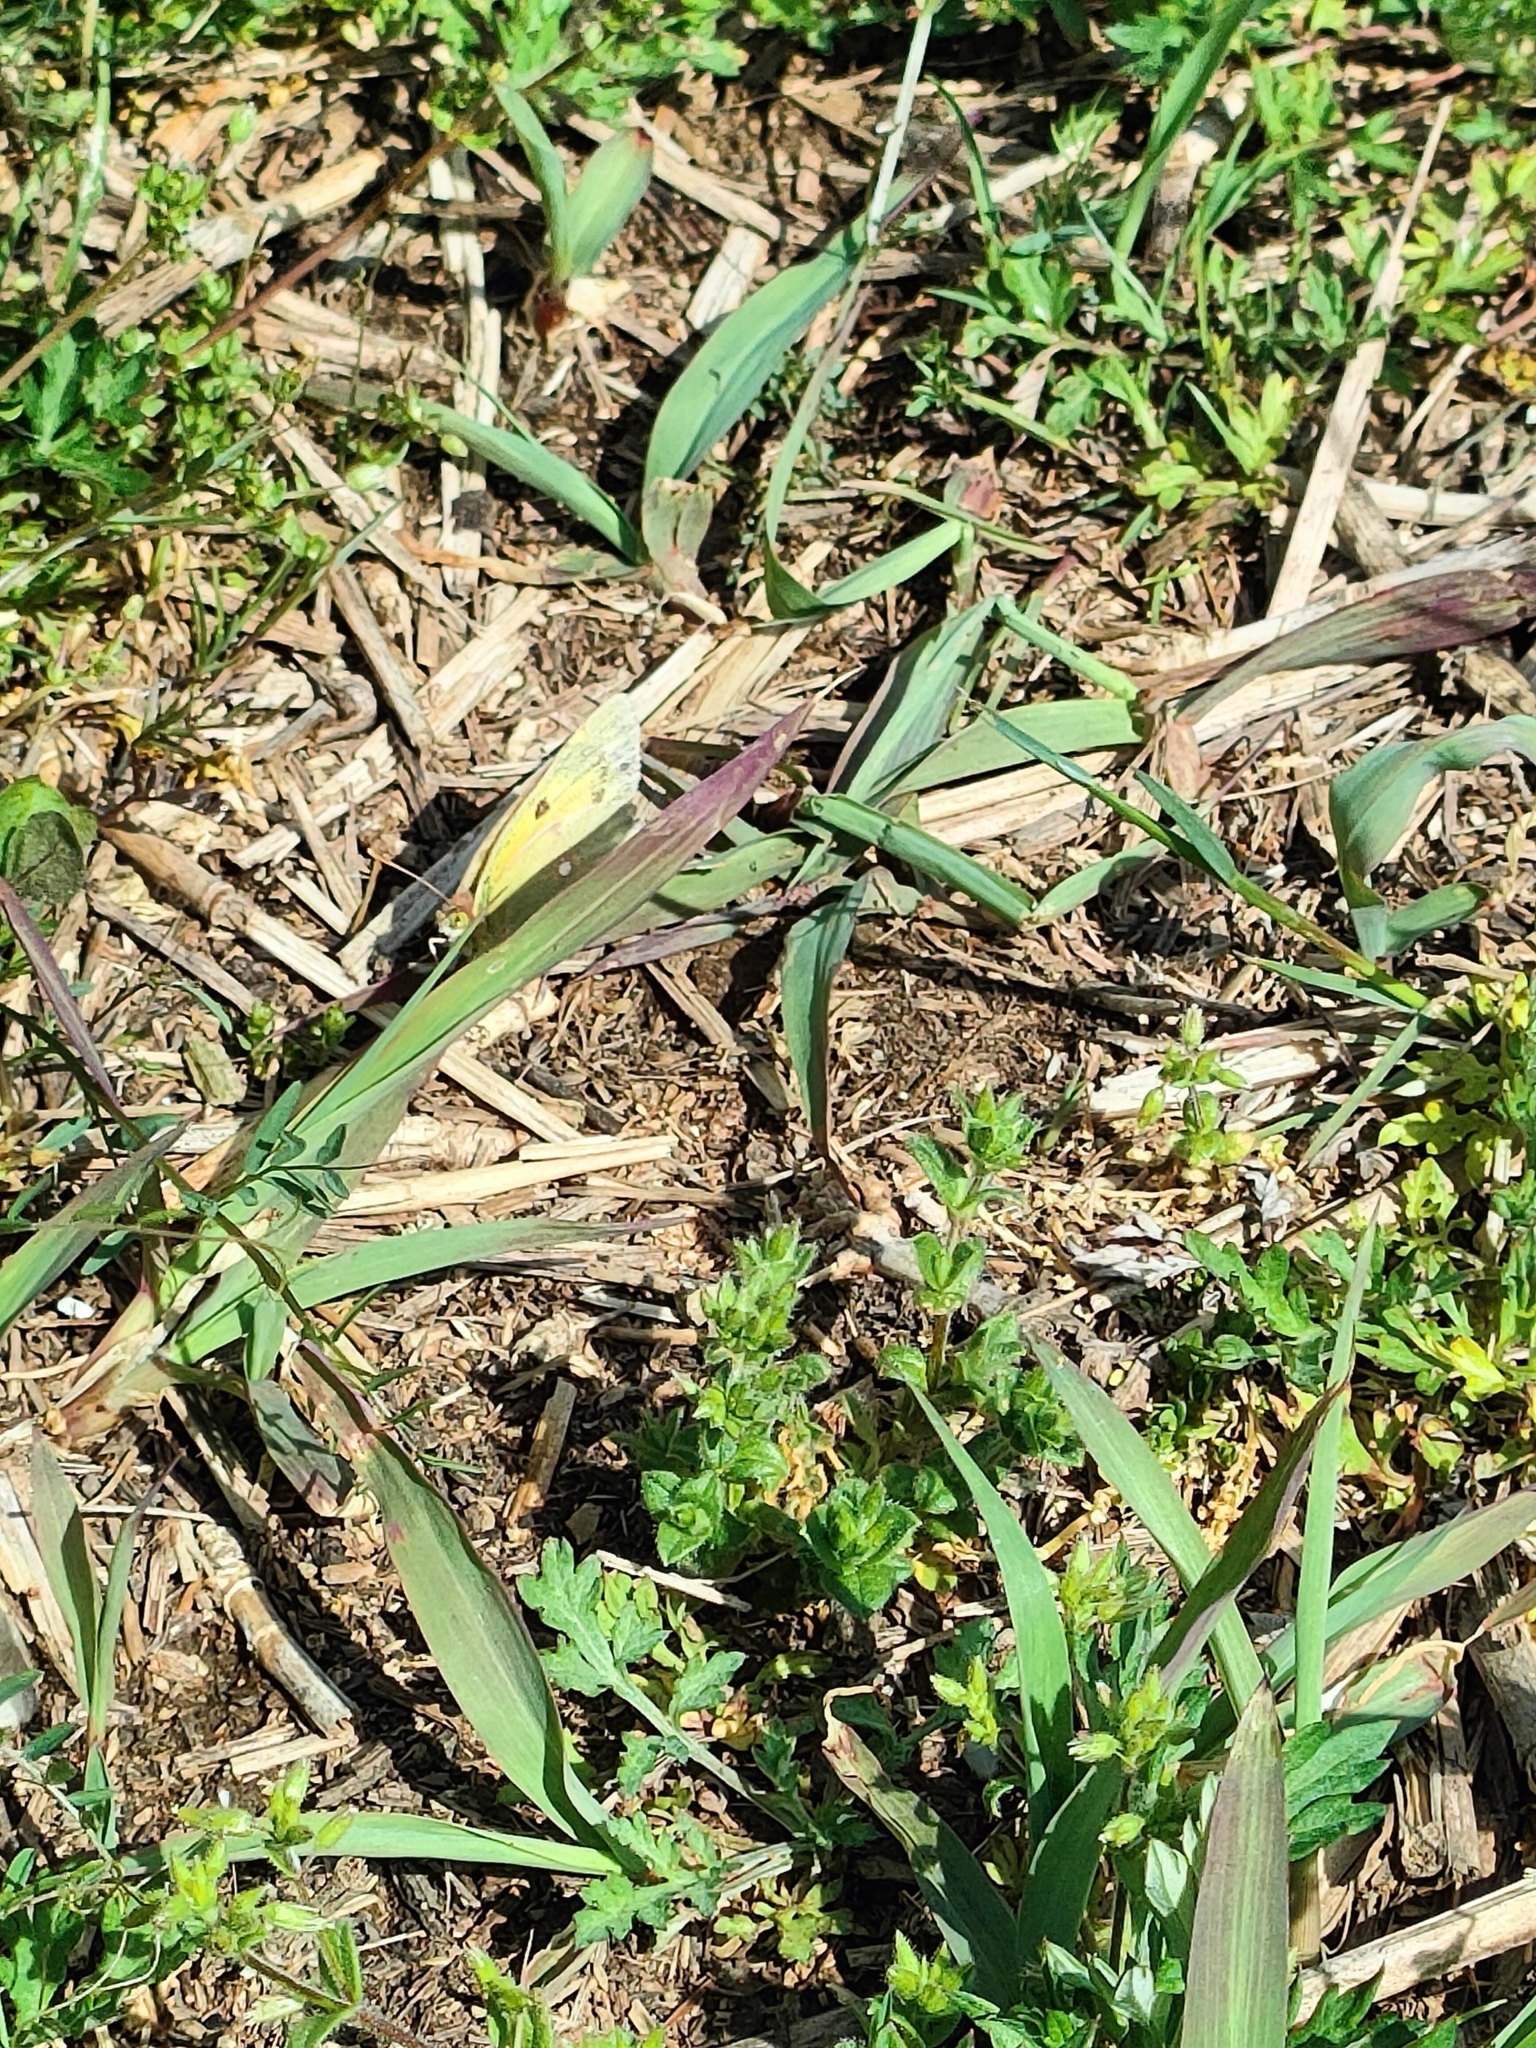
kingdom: Animalia
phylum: Arthropoda
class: Insecta
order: Lepidoptera
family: Pieridae
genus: Colias
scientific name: Colias croceus
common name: Clouded yellow
